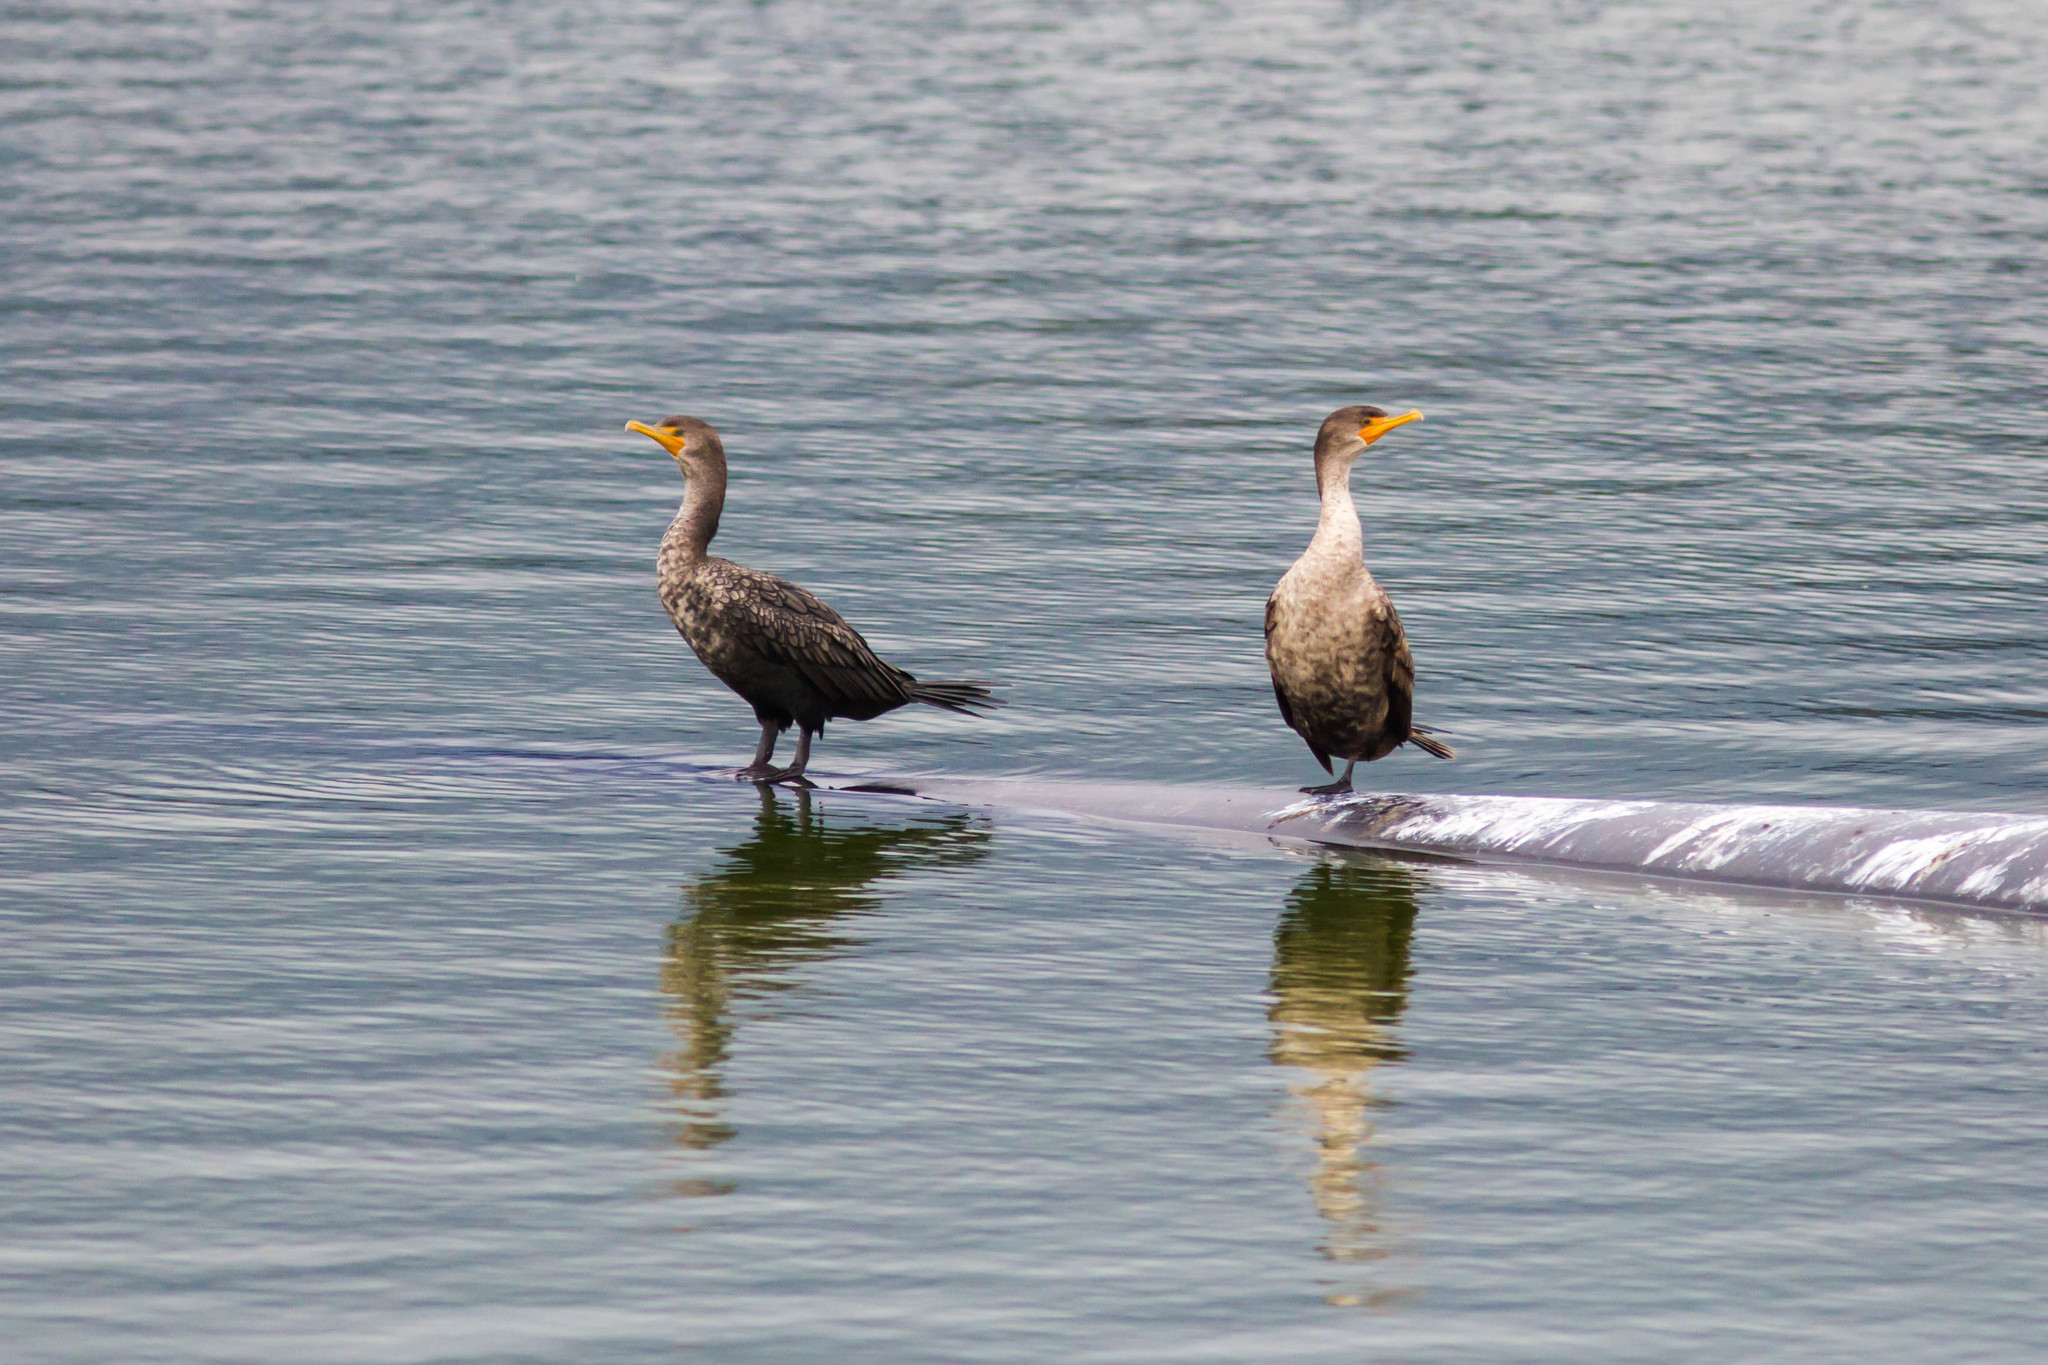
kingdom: Animalia
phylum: Chordata
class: Aves
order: Suliformes
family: Phalacrocoracidae
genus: Phalacrocorax
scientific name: Phalacrocorax auritus
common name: Double-crested cormorant
